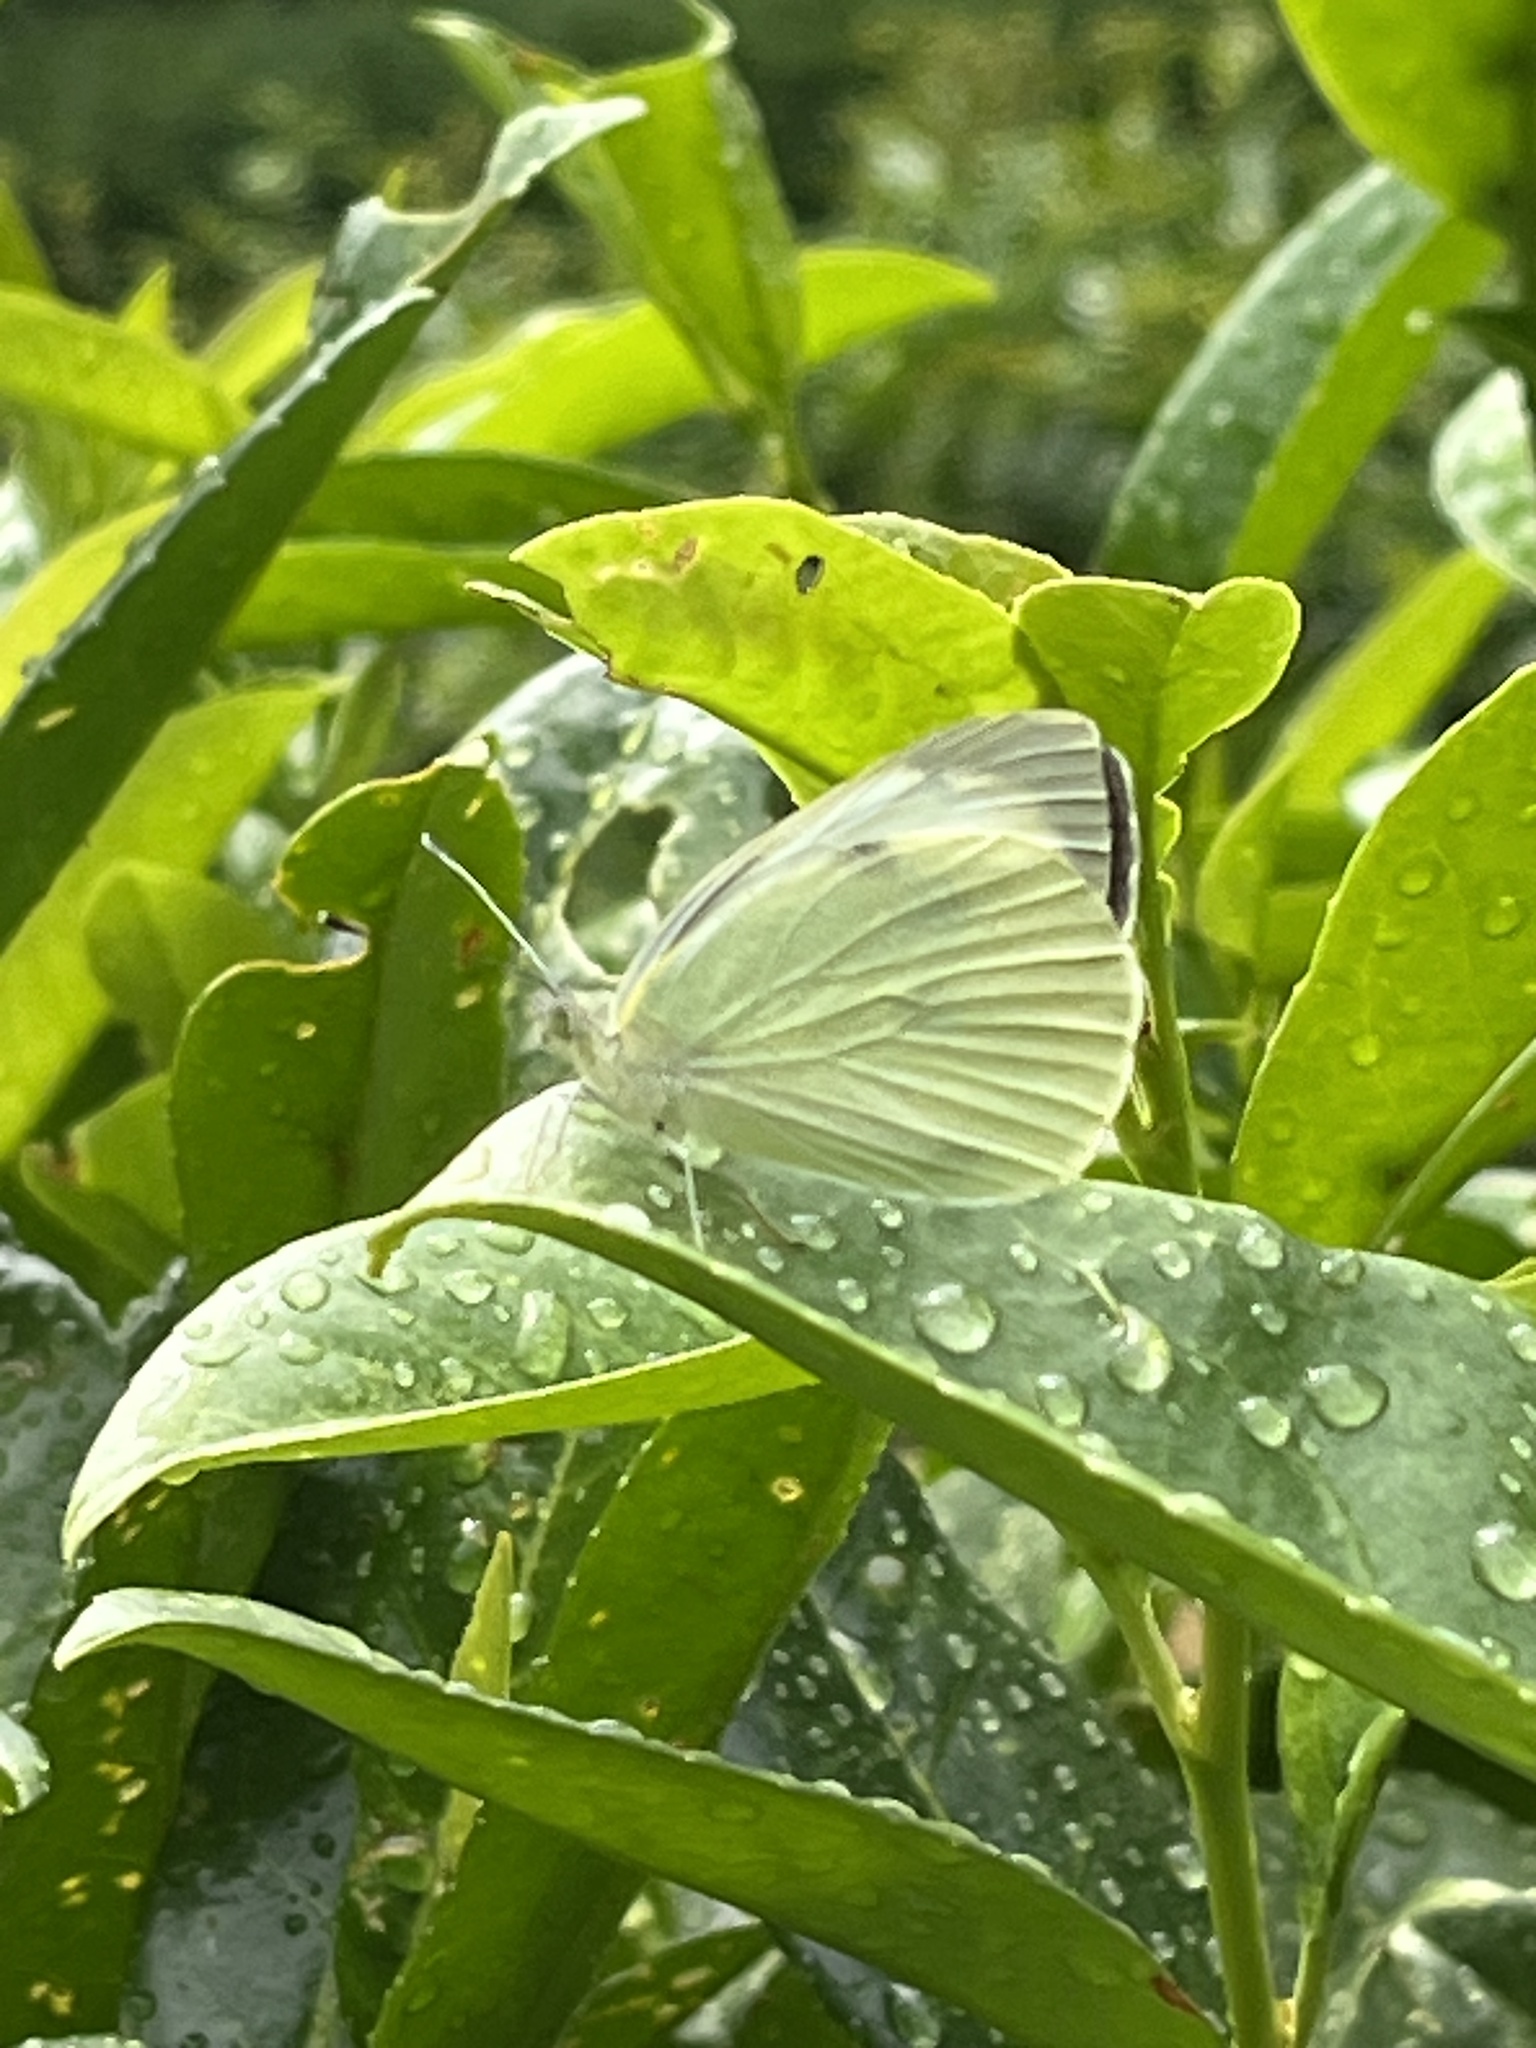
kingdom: Animalia
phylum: Arthropoda
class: Insecta
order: Lepidoptera
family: Pieridae
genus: Pieris
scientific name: Pieris brassicae
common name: Large white
